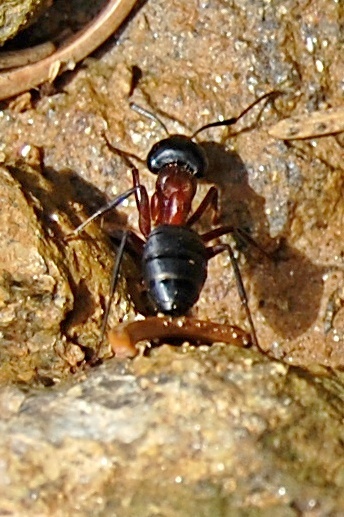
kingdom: Animalia
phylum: Arthropoda
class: Insecta
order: Hymenoptera
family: Formicidae
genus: Camponotus
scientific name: Camponotus ligniperdus
